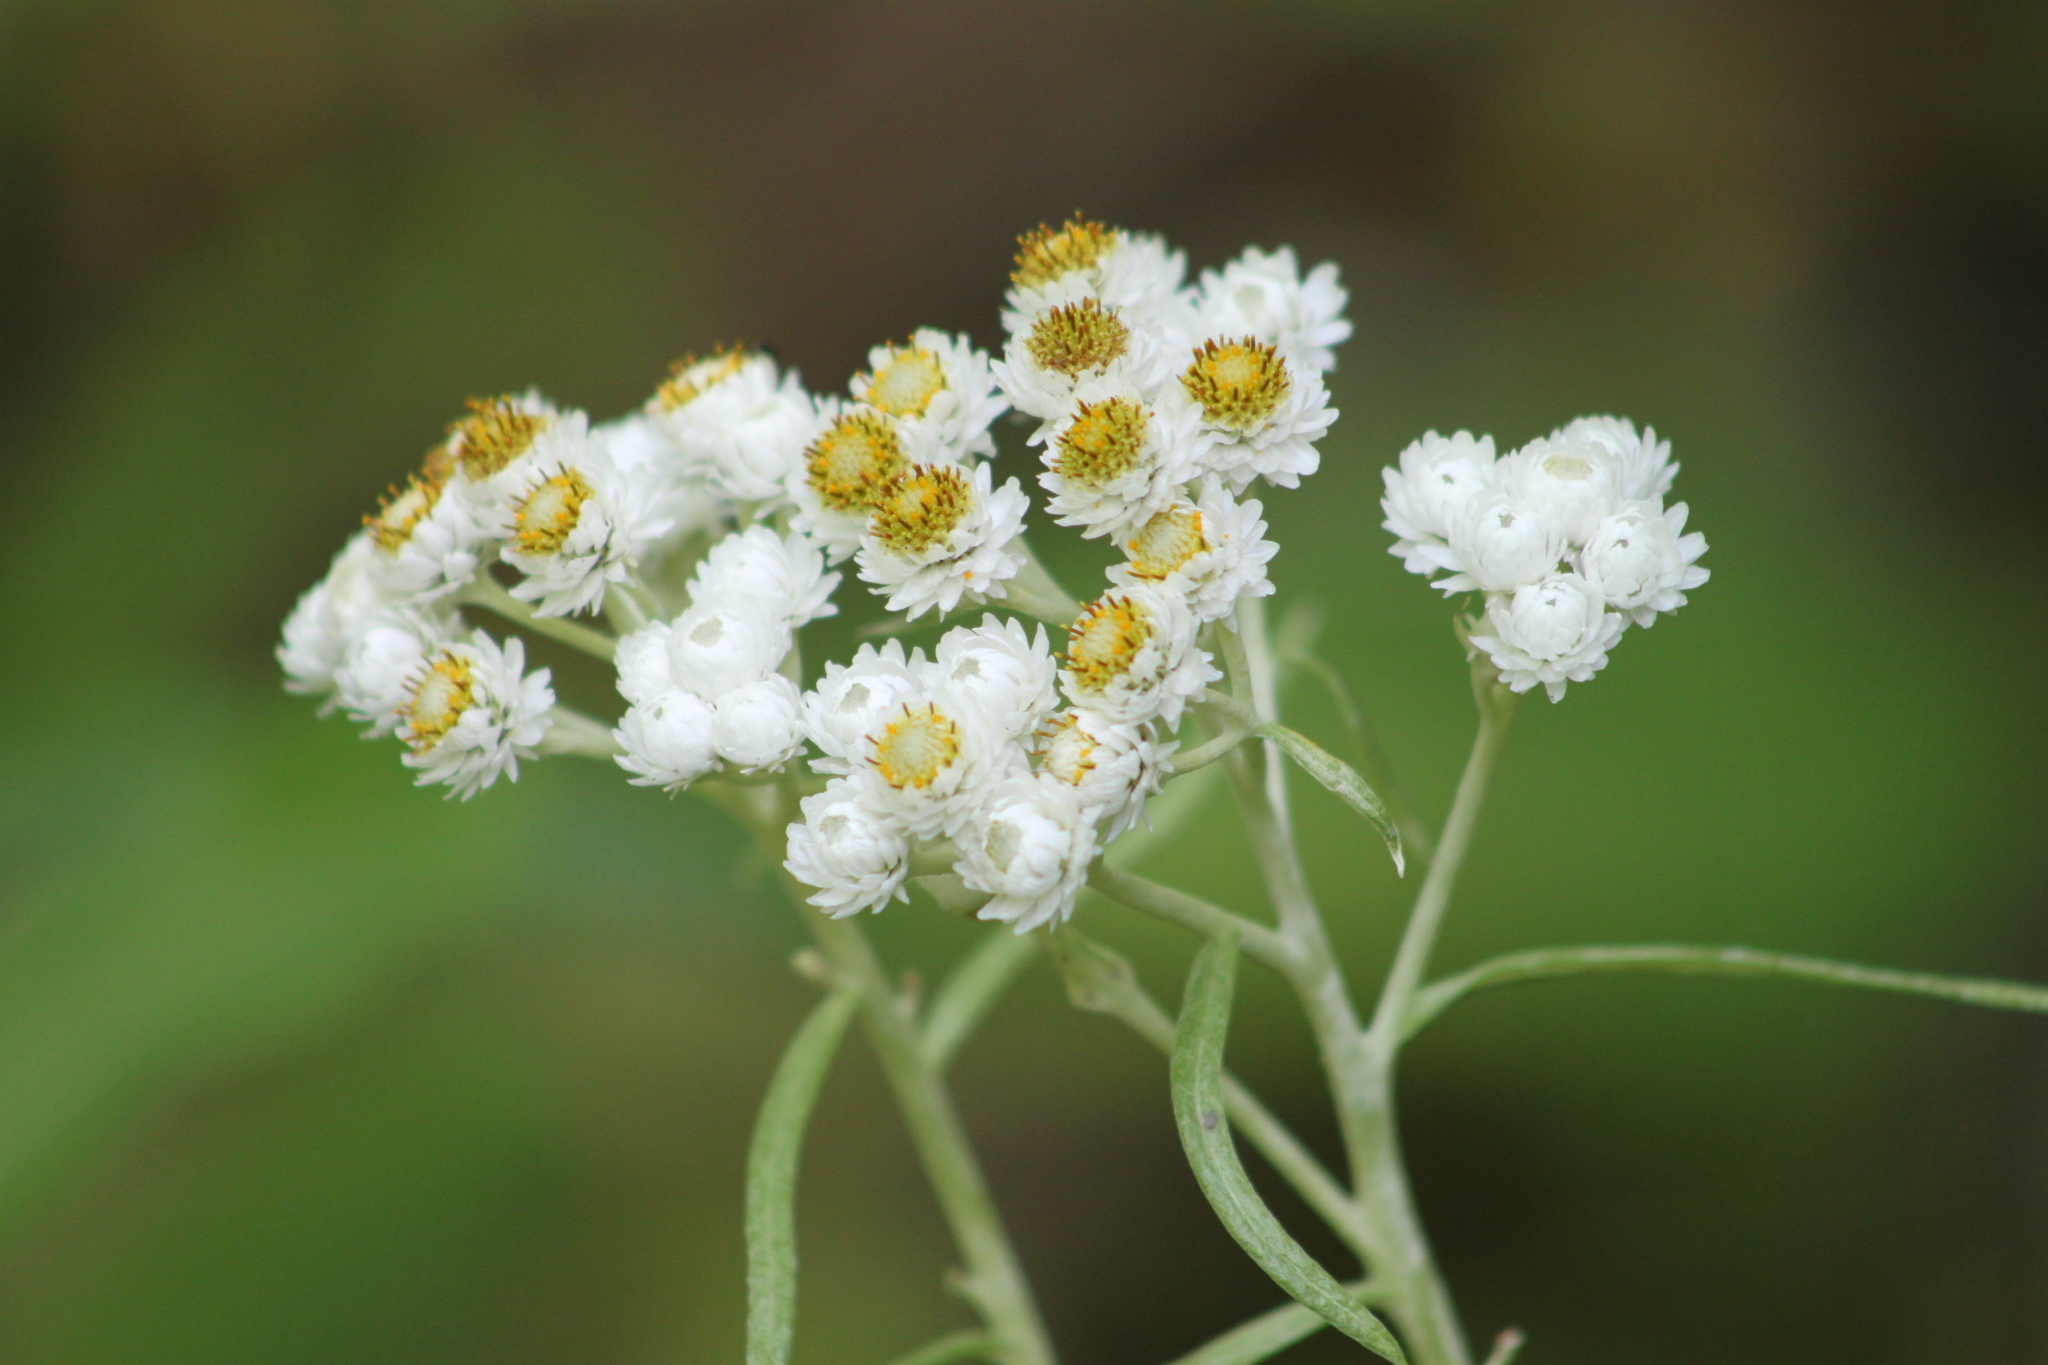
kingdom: Plantae
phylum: Tracheophyta
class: Magnoliopsida
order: Asterales
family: Asteraceae
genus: Anaphalis
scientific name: Anaphalis margaritacea
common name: Pearly everlasting
